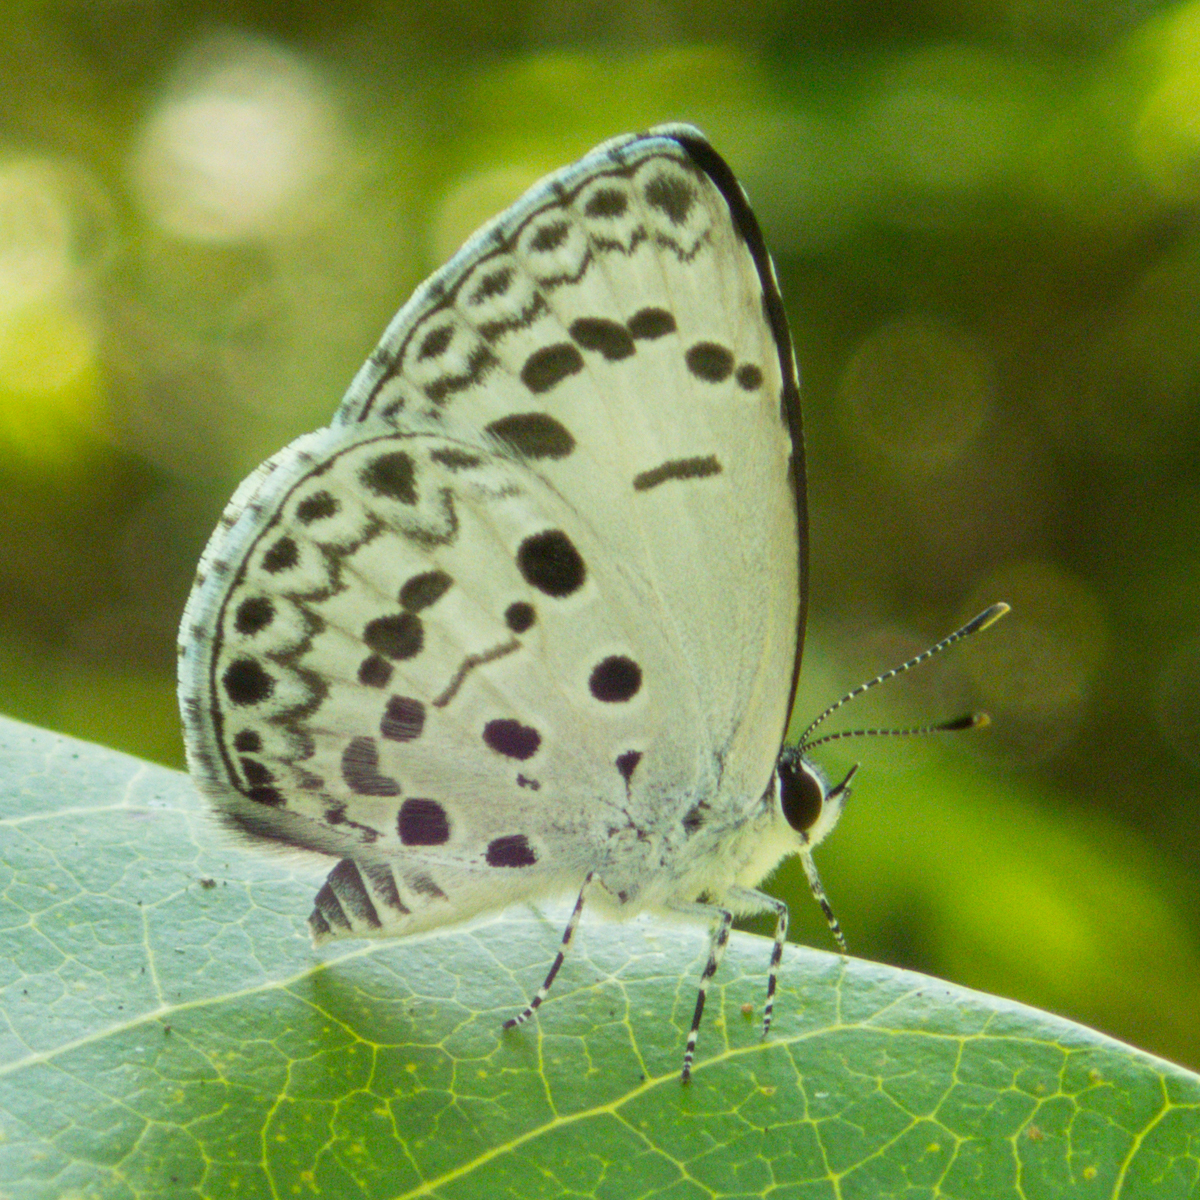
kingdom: Animalia
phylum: Arthropoda
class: Insecta
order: Lepidoptera
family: Lycaenidae
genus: Acytolepis
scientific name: Acytolepis puspa
